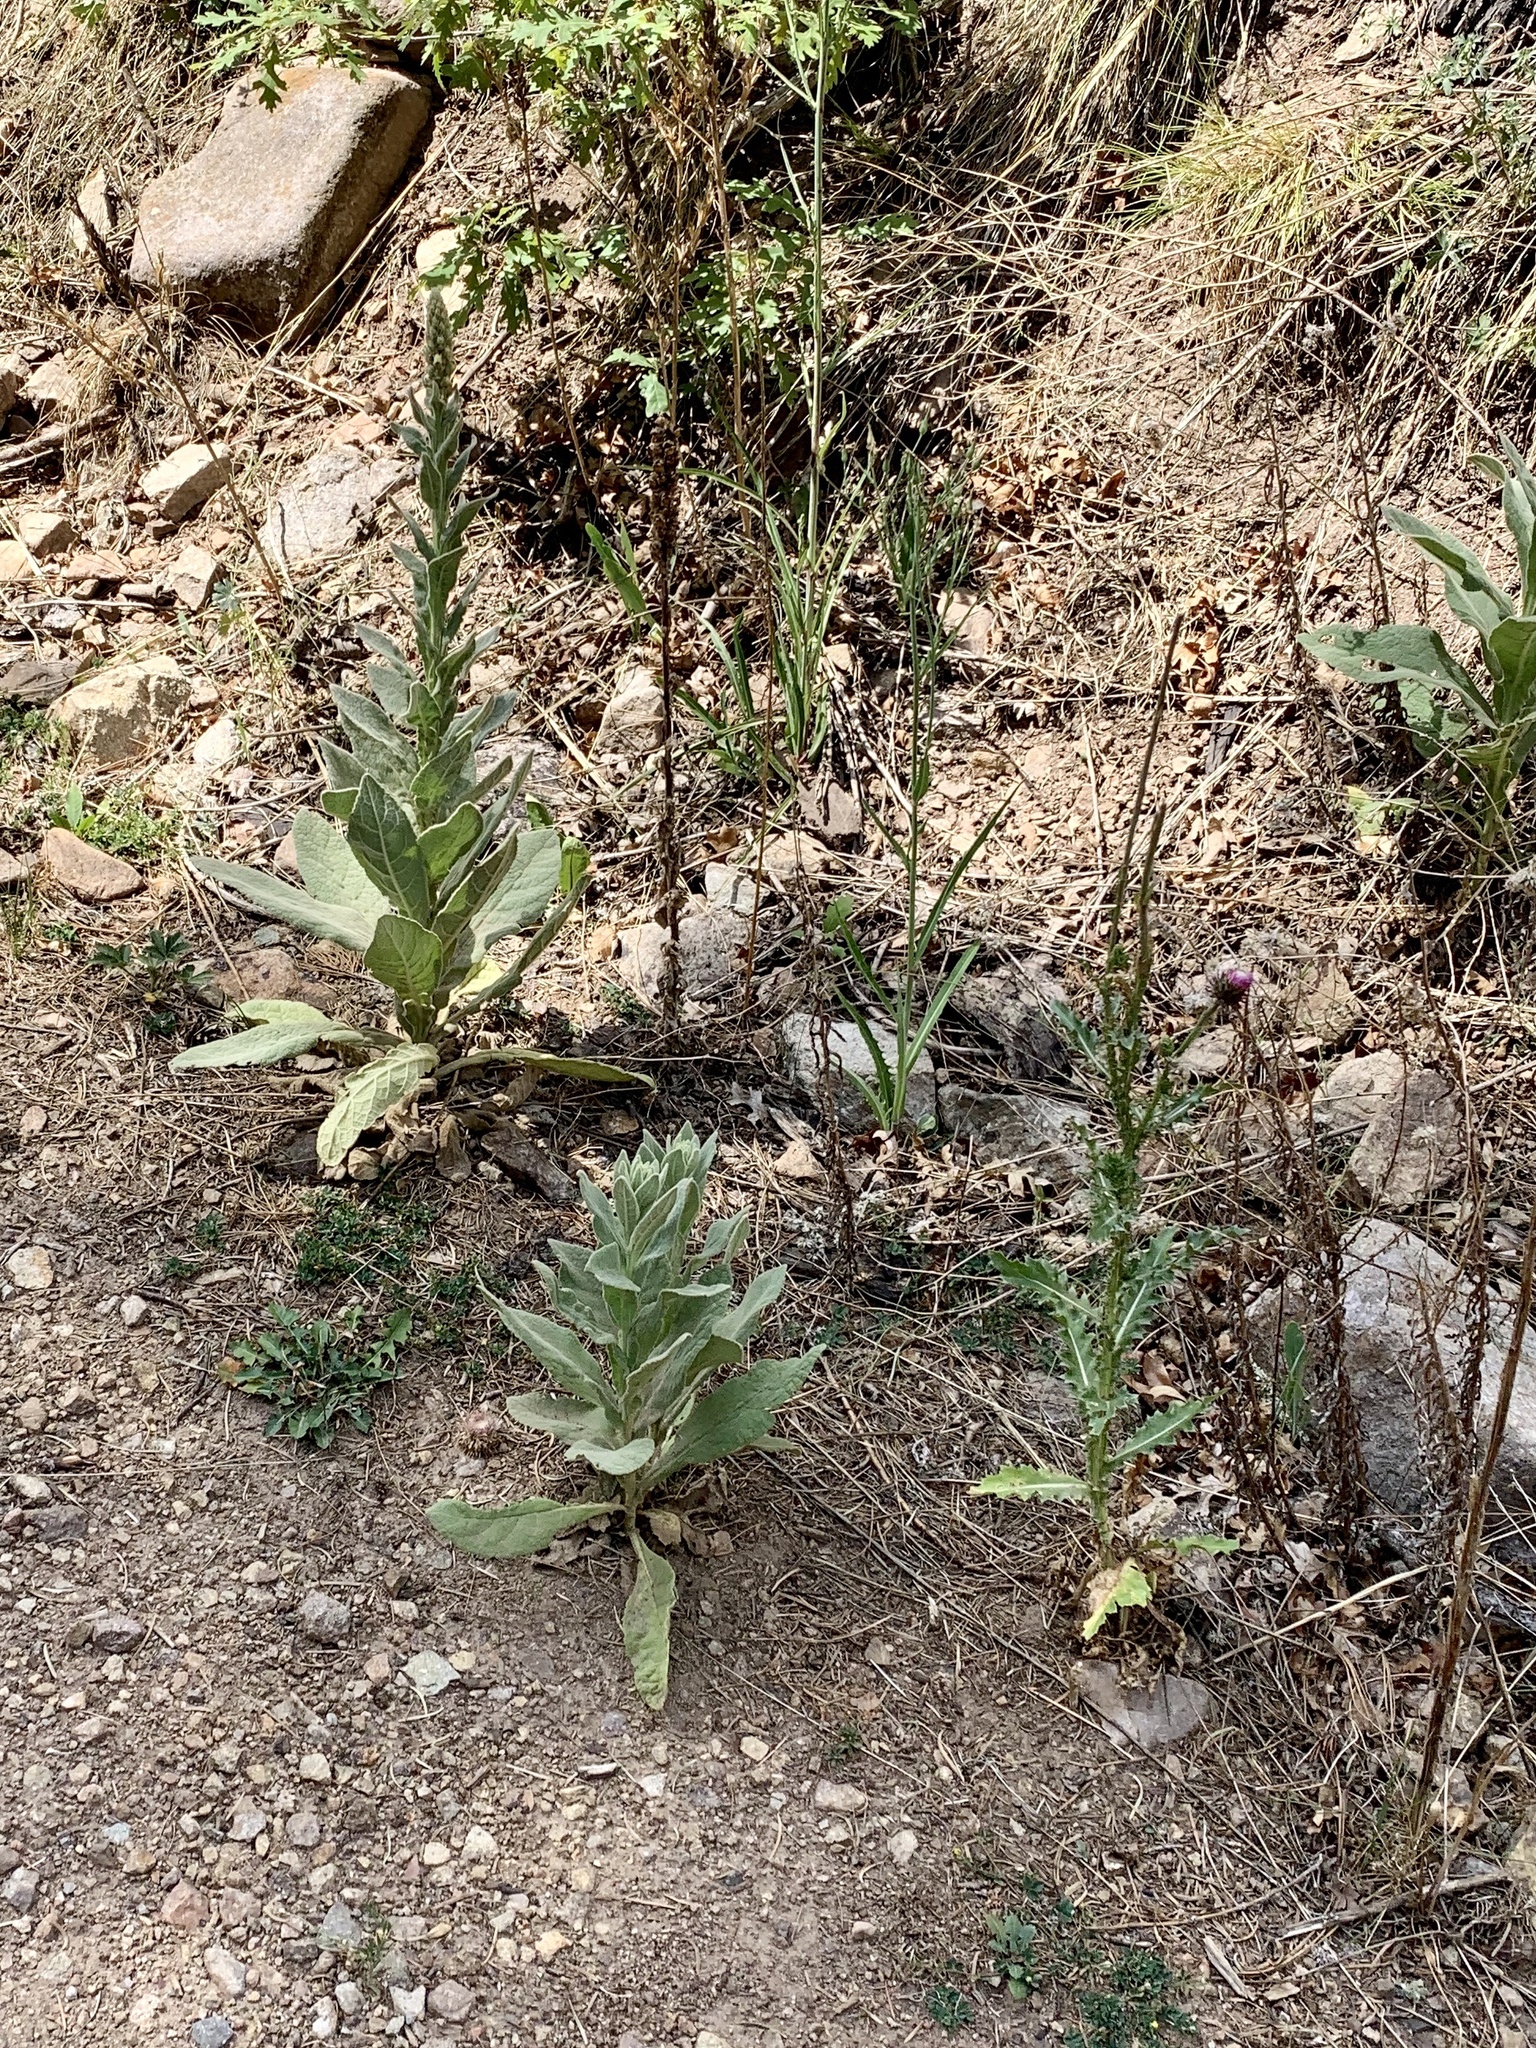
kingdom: Plantae
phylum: Tracheophyta
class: Magnoliopsida
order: Lamiales
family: Scrophulariaceae
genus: Verbascum
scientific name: Verbascum thapsus
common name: Common mullein
